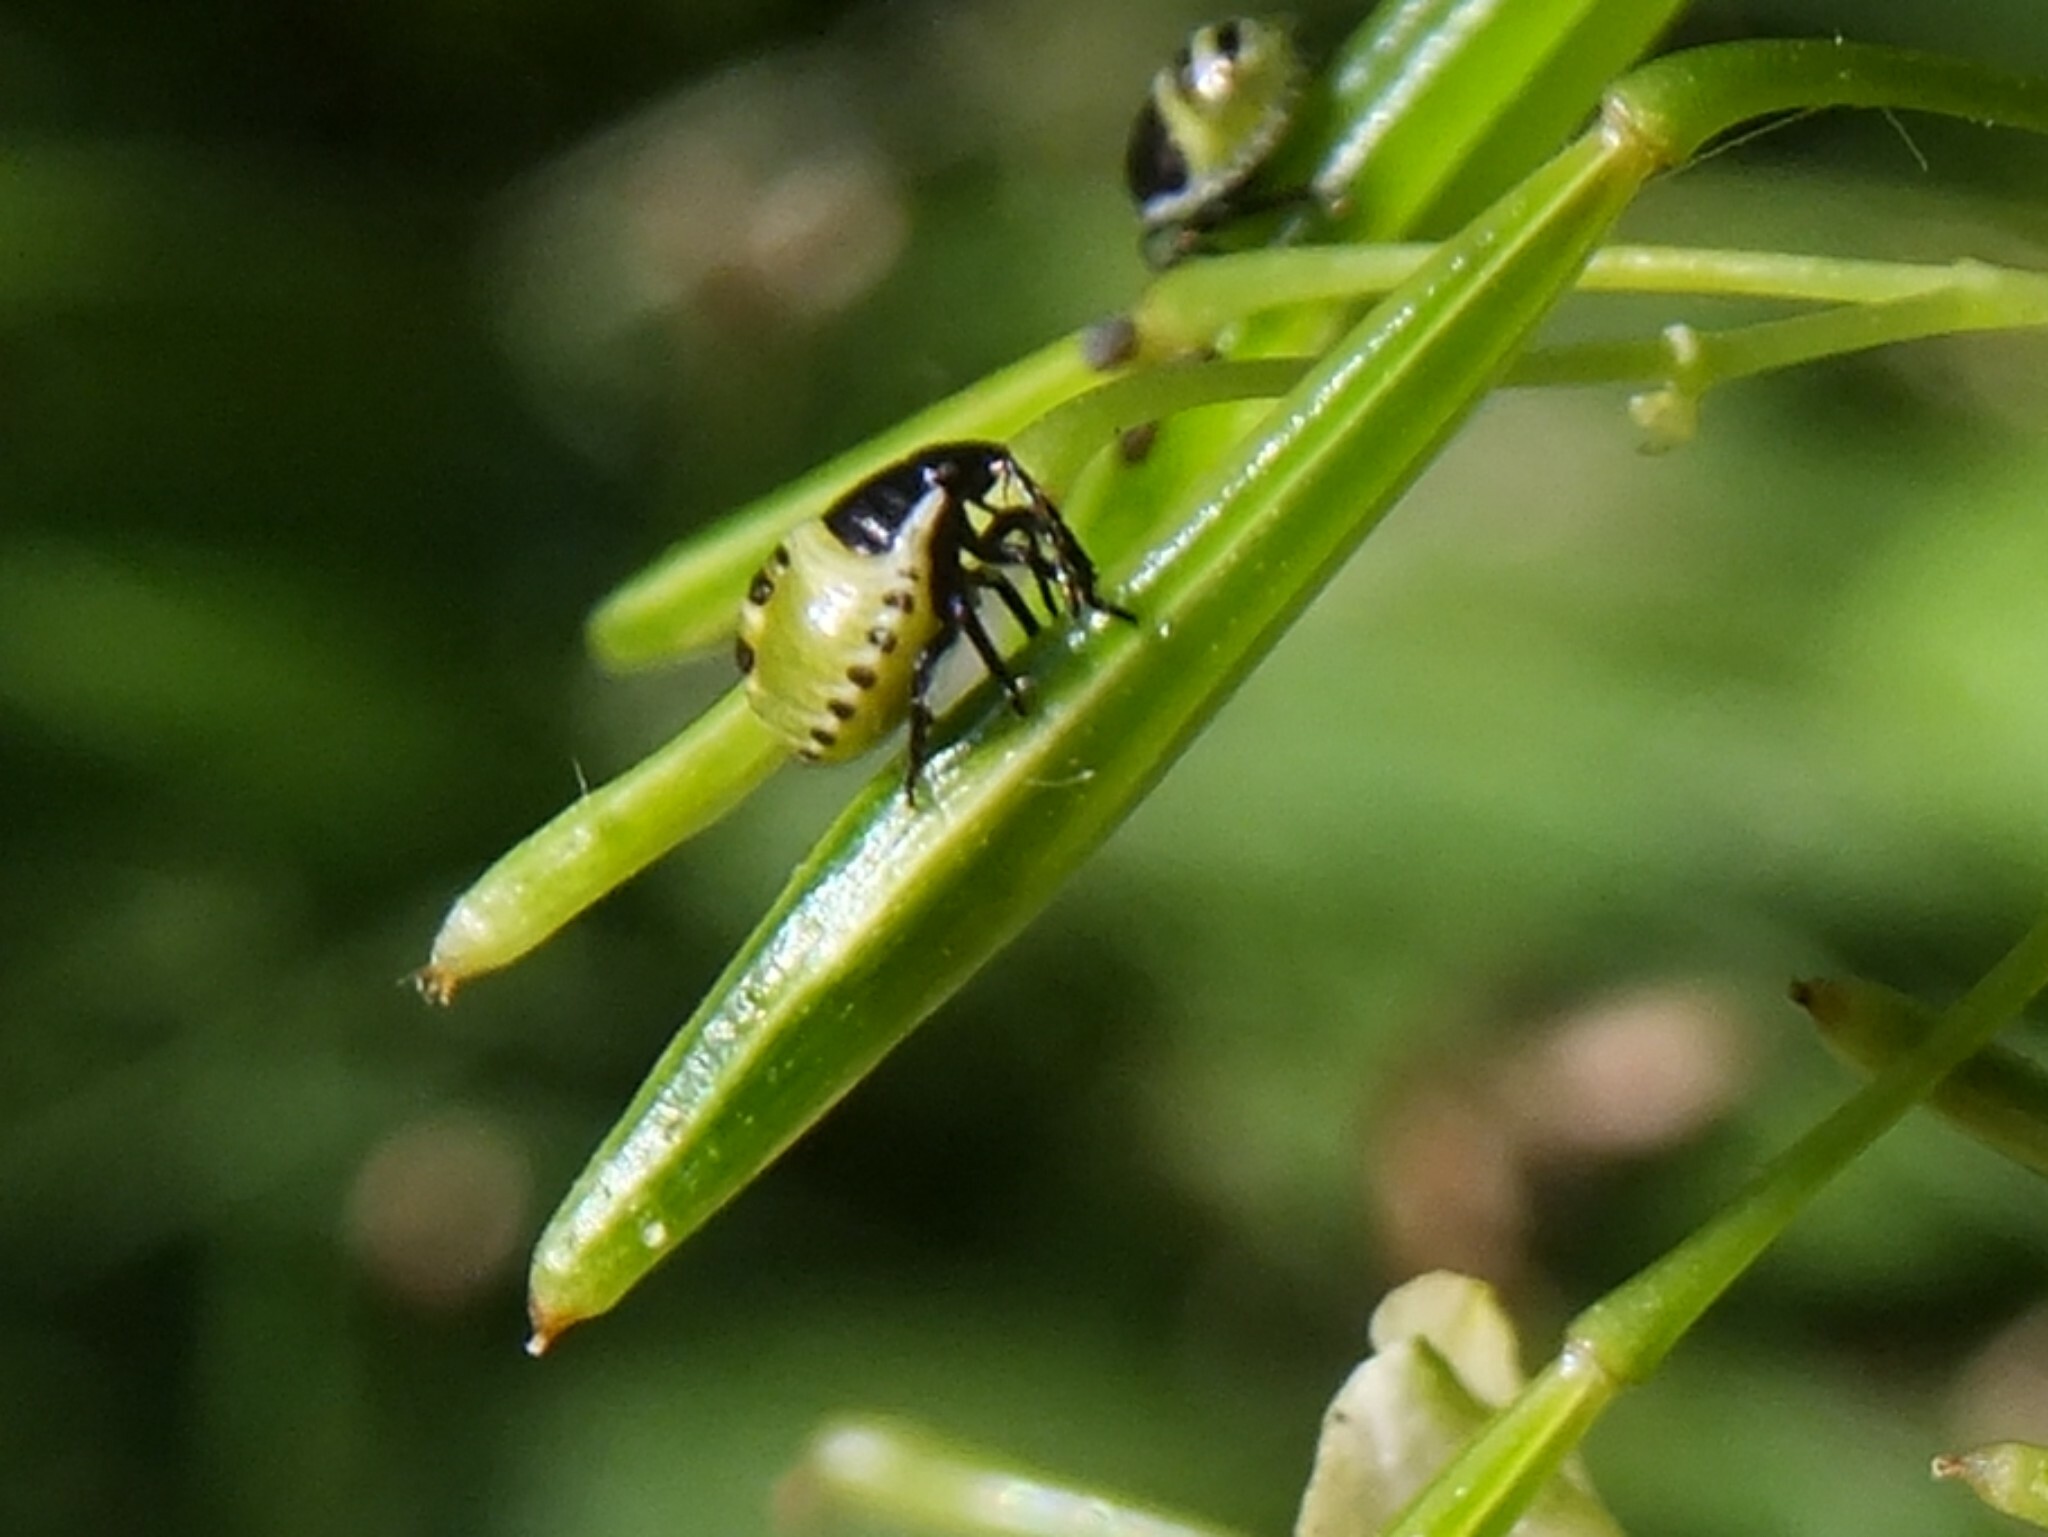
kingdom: Animalia
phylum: Arthropoda
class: Insecta
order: Hemiptera
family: Pentatomidae
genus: Palomena
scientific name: Palomena prasina
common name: Green shieldbug
